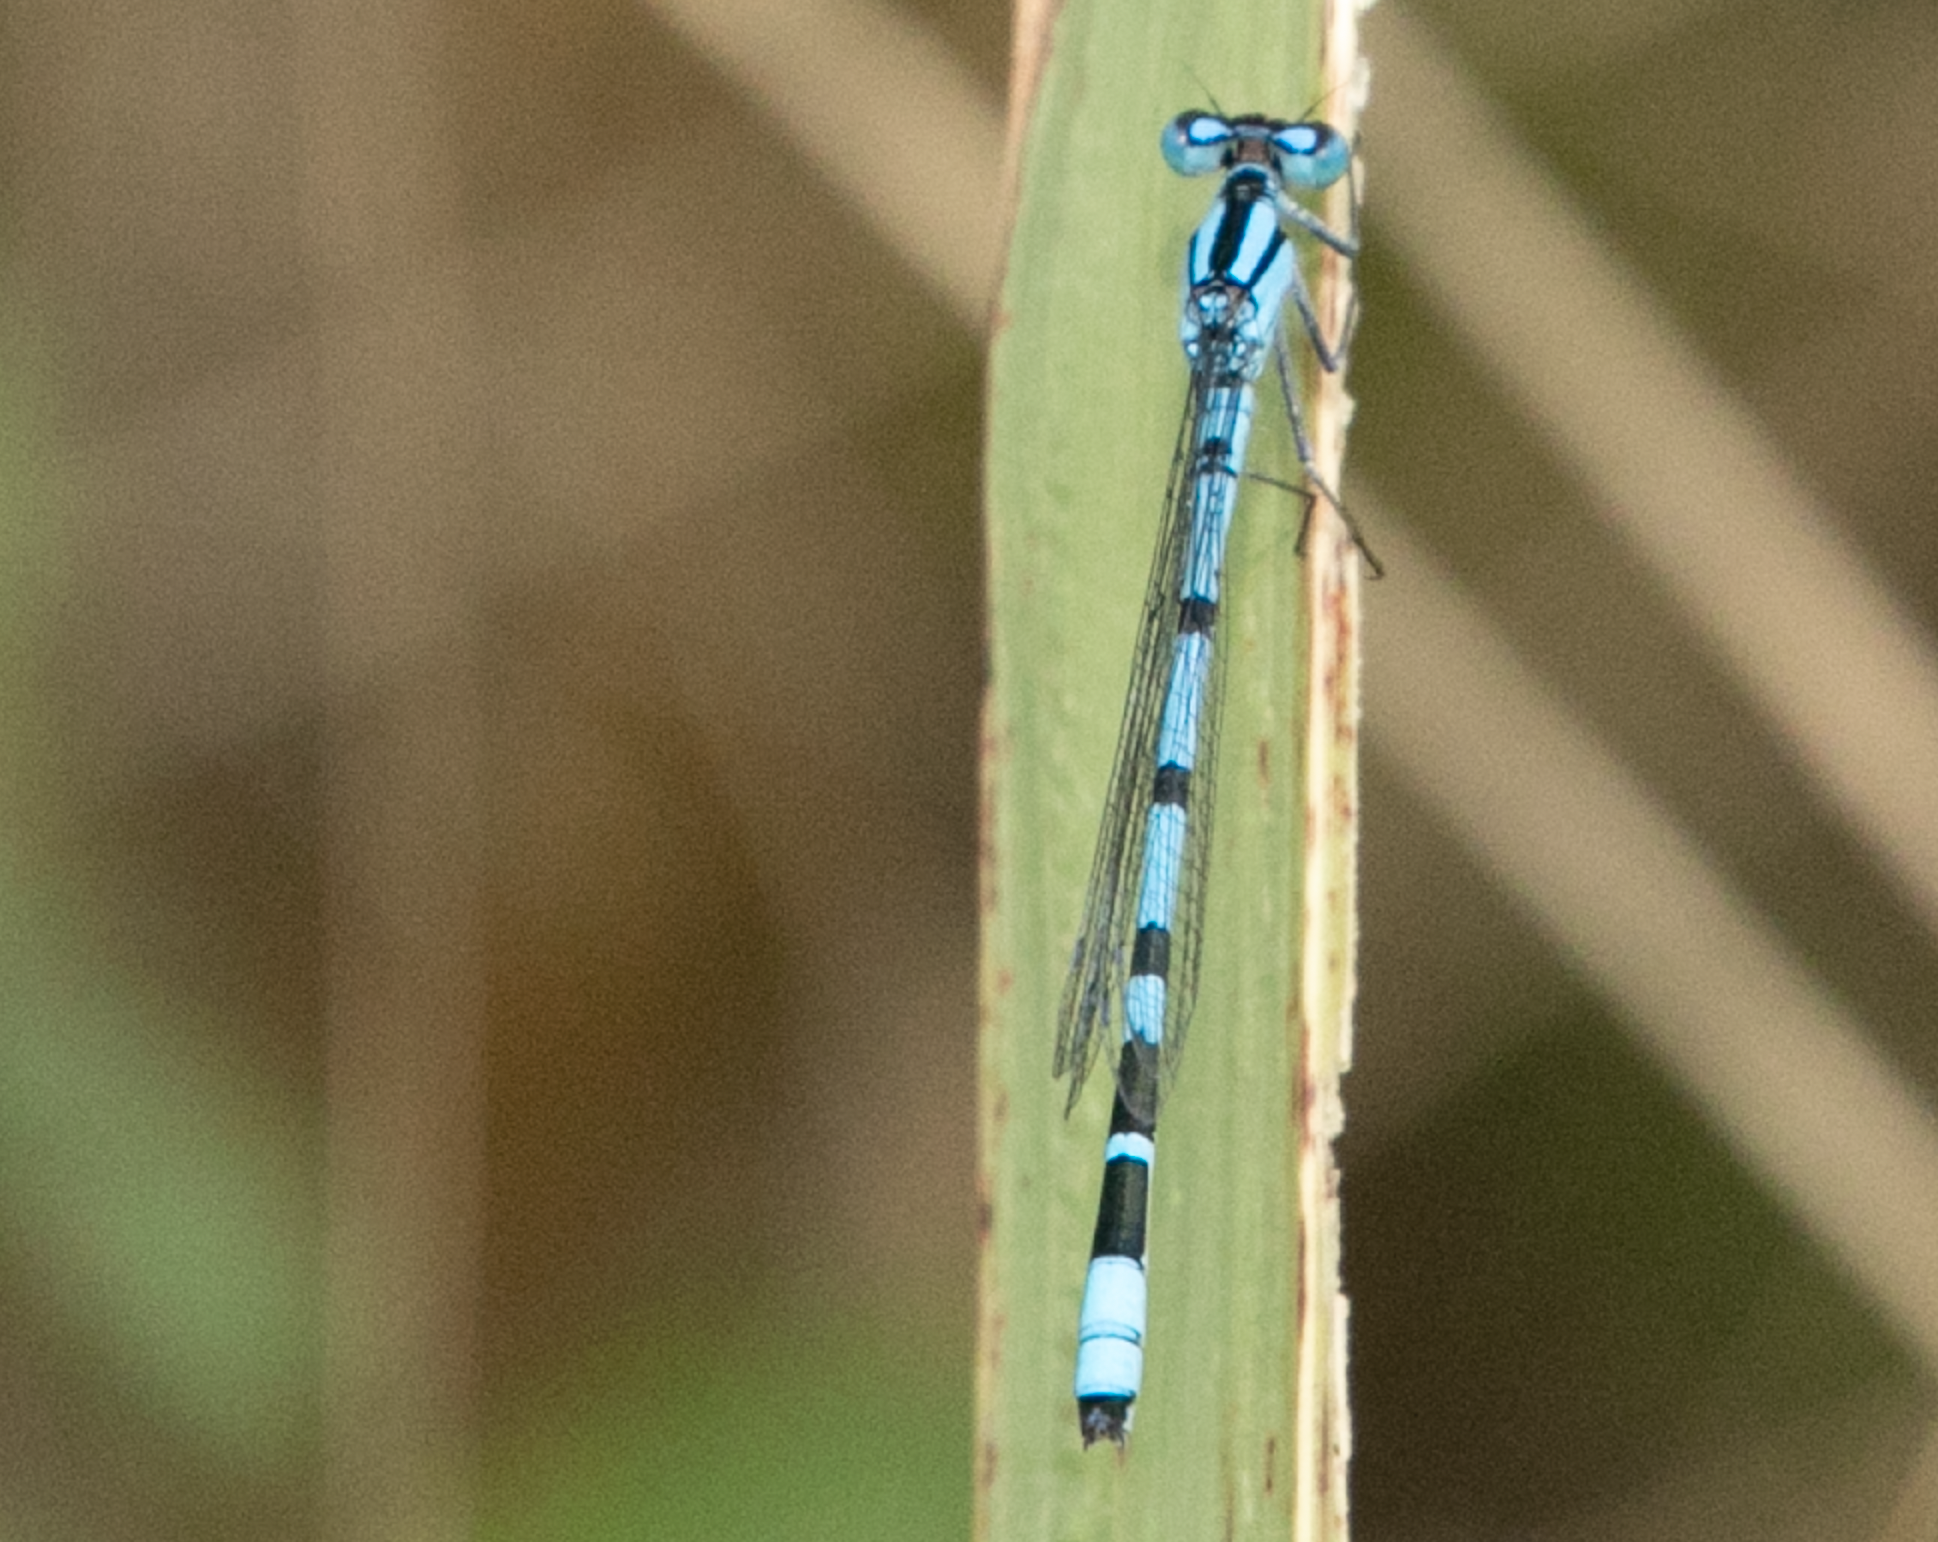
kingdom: Animalia
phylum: Arthropoda
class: Insecta
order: Odonata
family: Coenagrionidae
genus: Enallagma
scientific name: Enallagma cyathigerum
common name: Common blue damselfly
